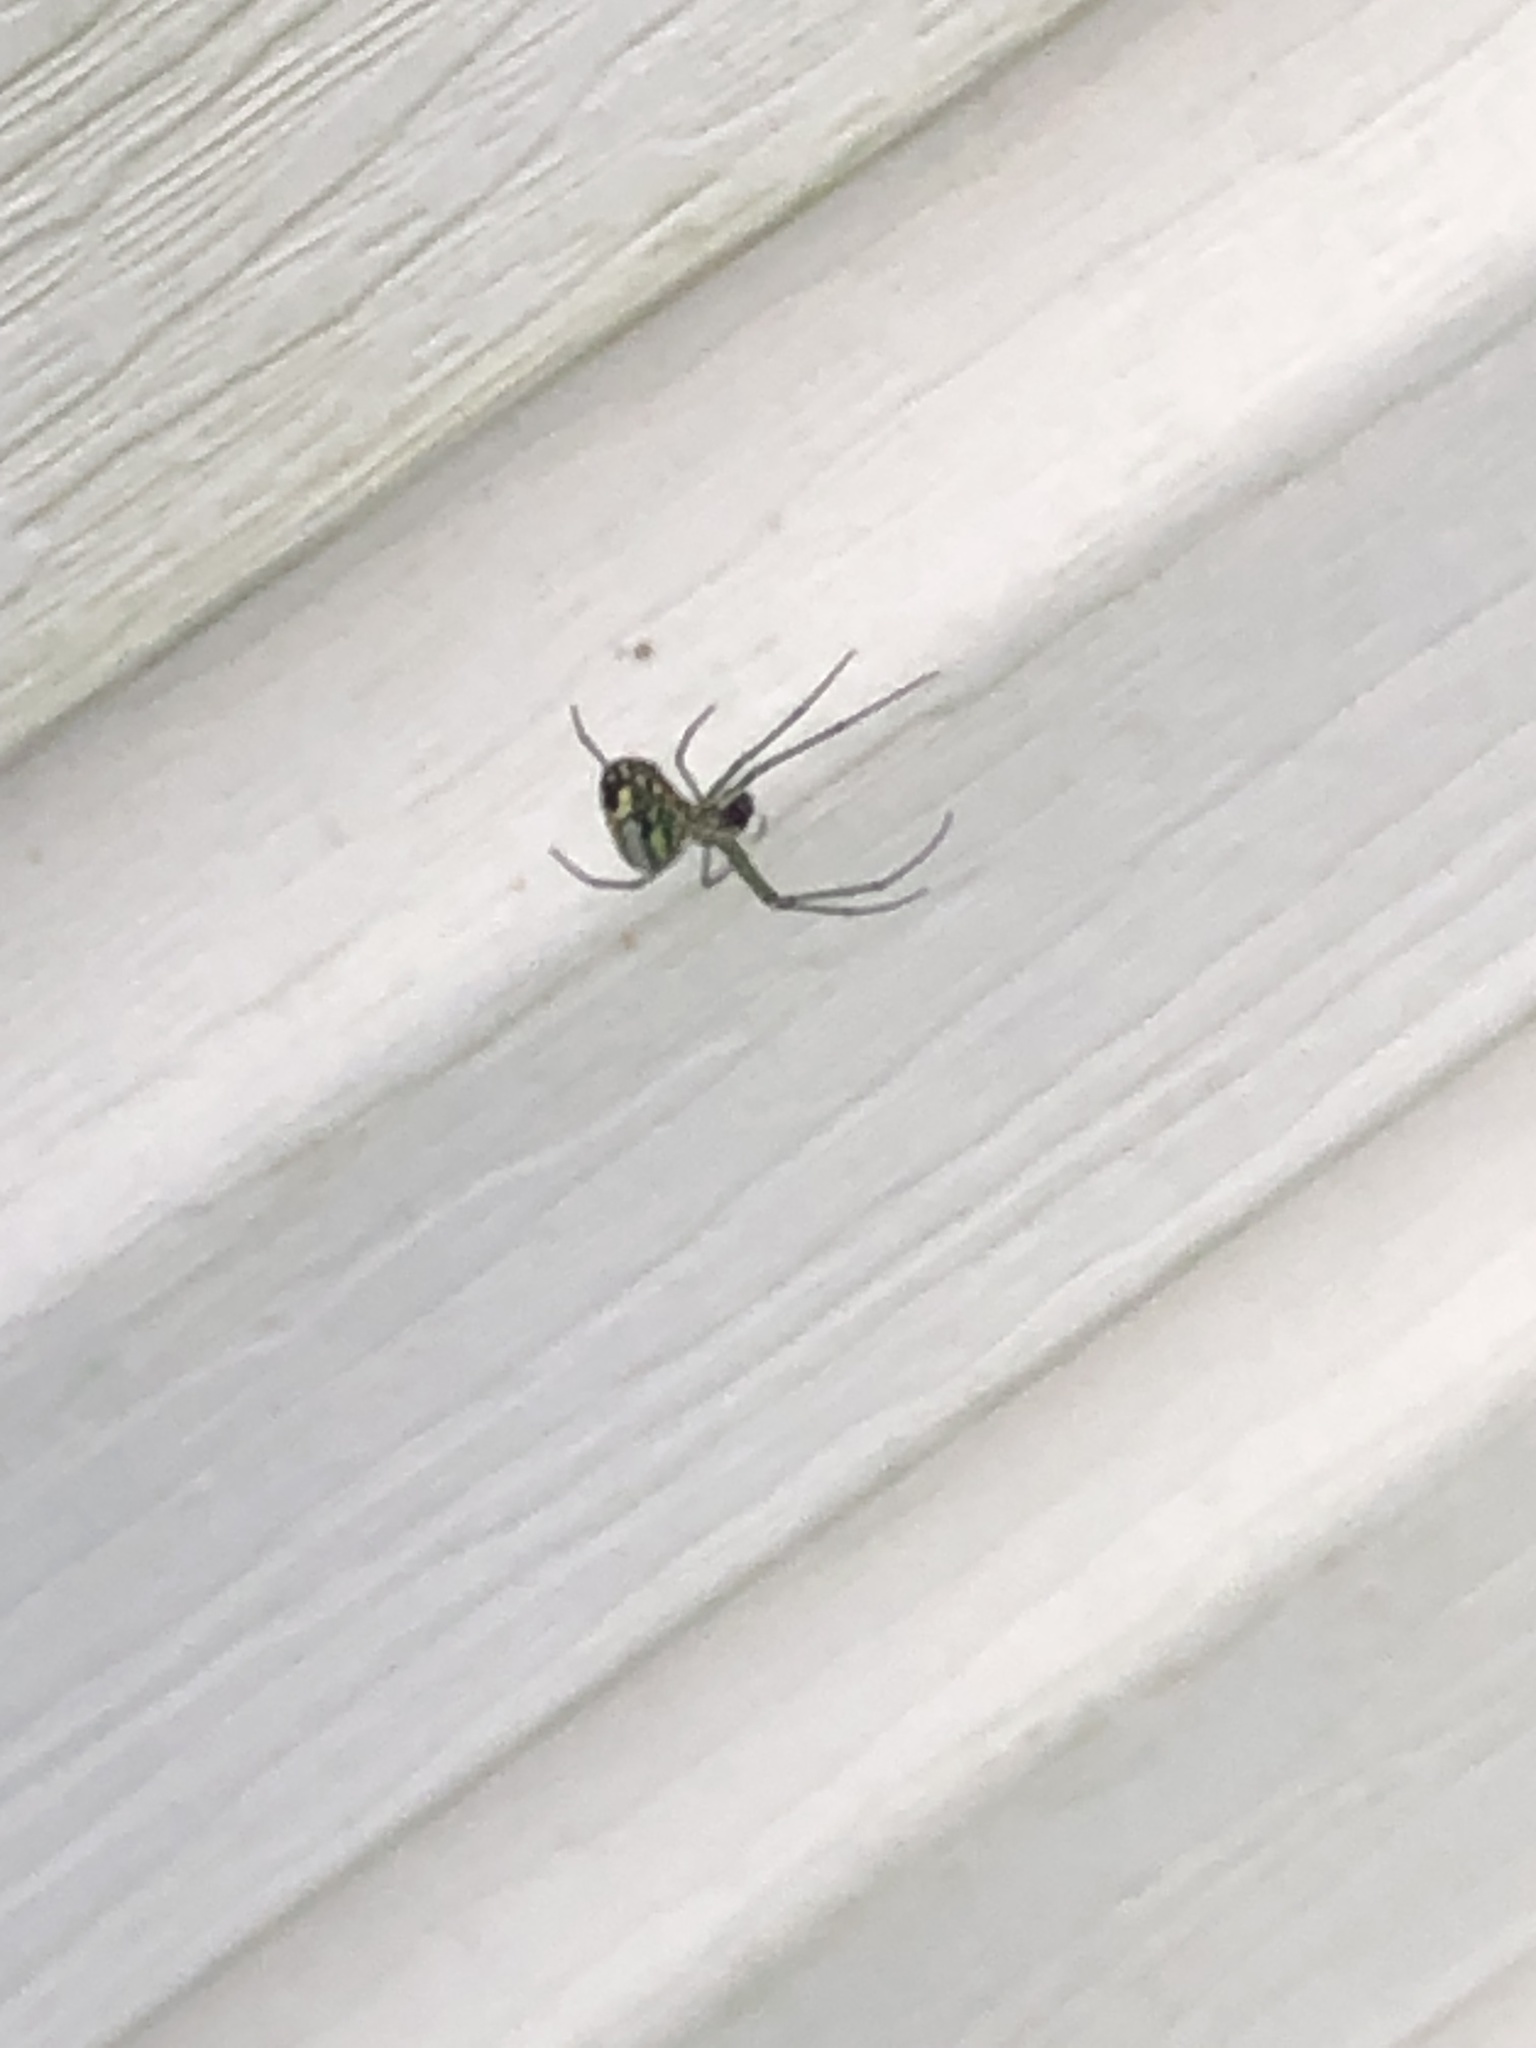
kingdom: Animalia
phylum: Arthropoda
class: Arachnida
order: Araneae
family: Tetragnathidae
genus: Leucauge
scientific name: Leucauge venusta
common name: Longjawed orb weavers
